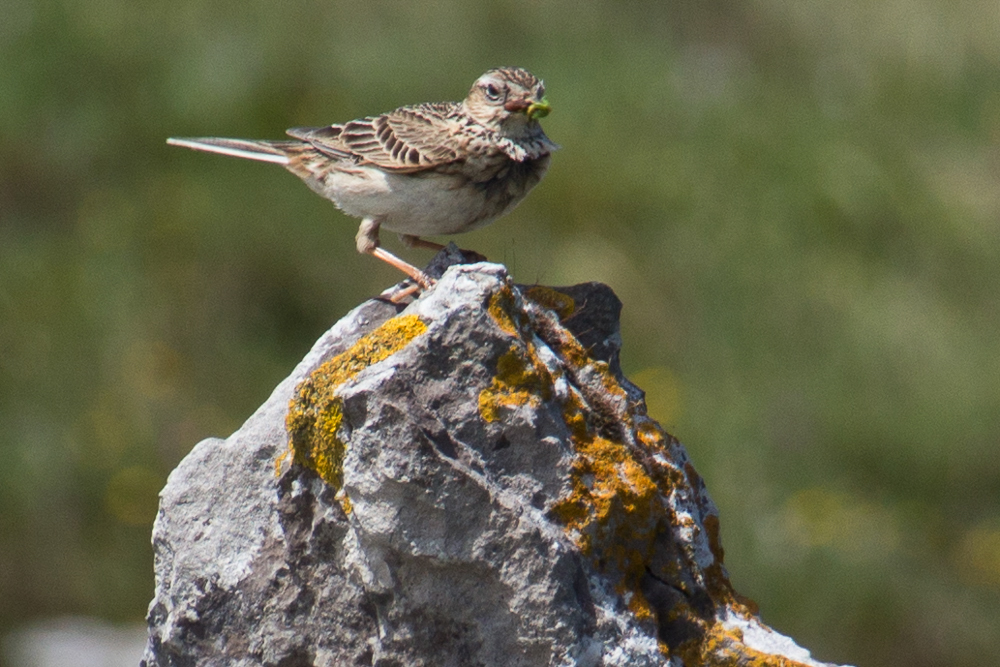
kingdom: Animalia
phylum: Chordata
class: Aves
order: Passeriformes
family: Alaudidae
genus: Alauda
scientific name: Alauda arvensis
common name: Eurasian skylark
